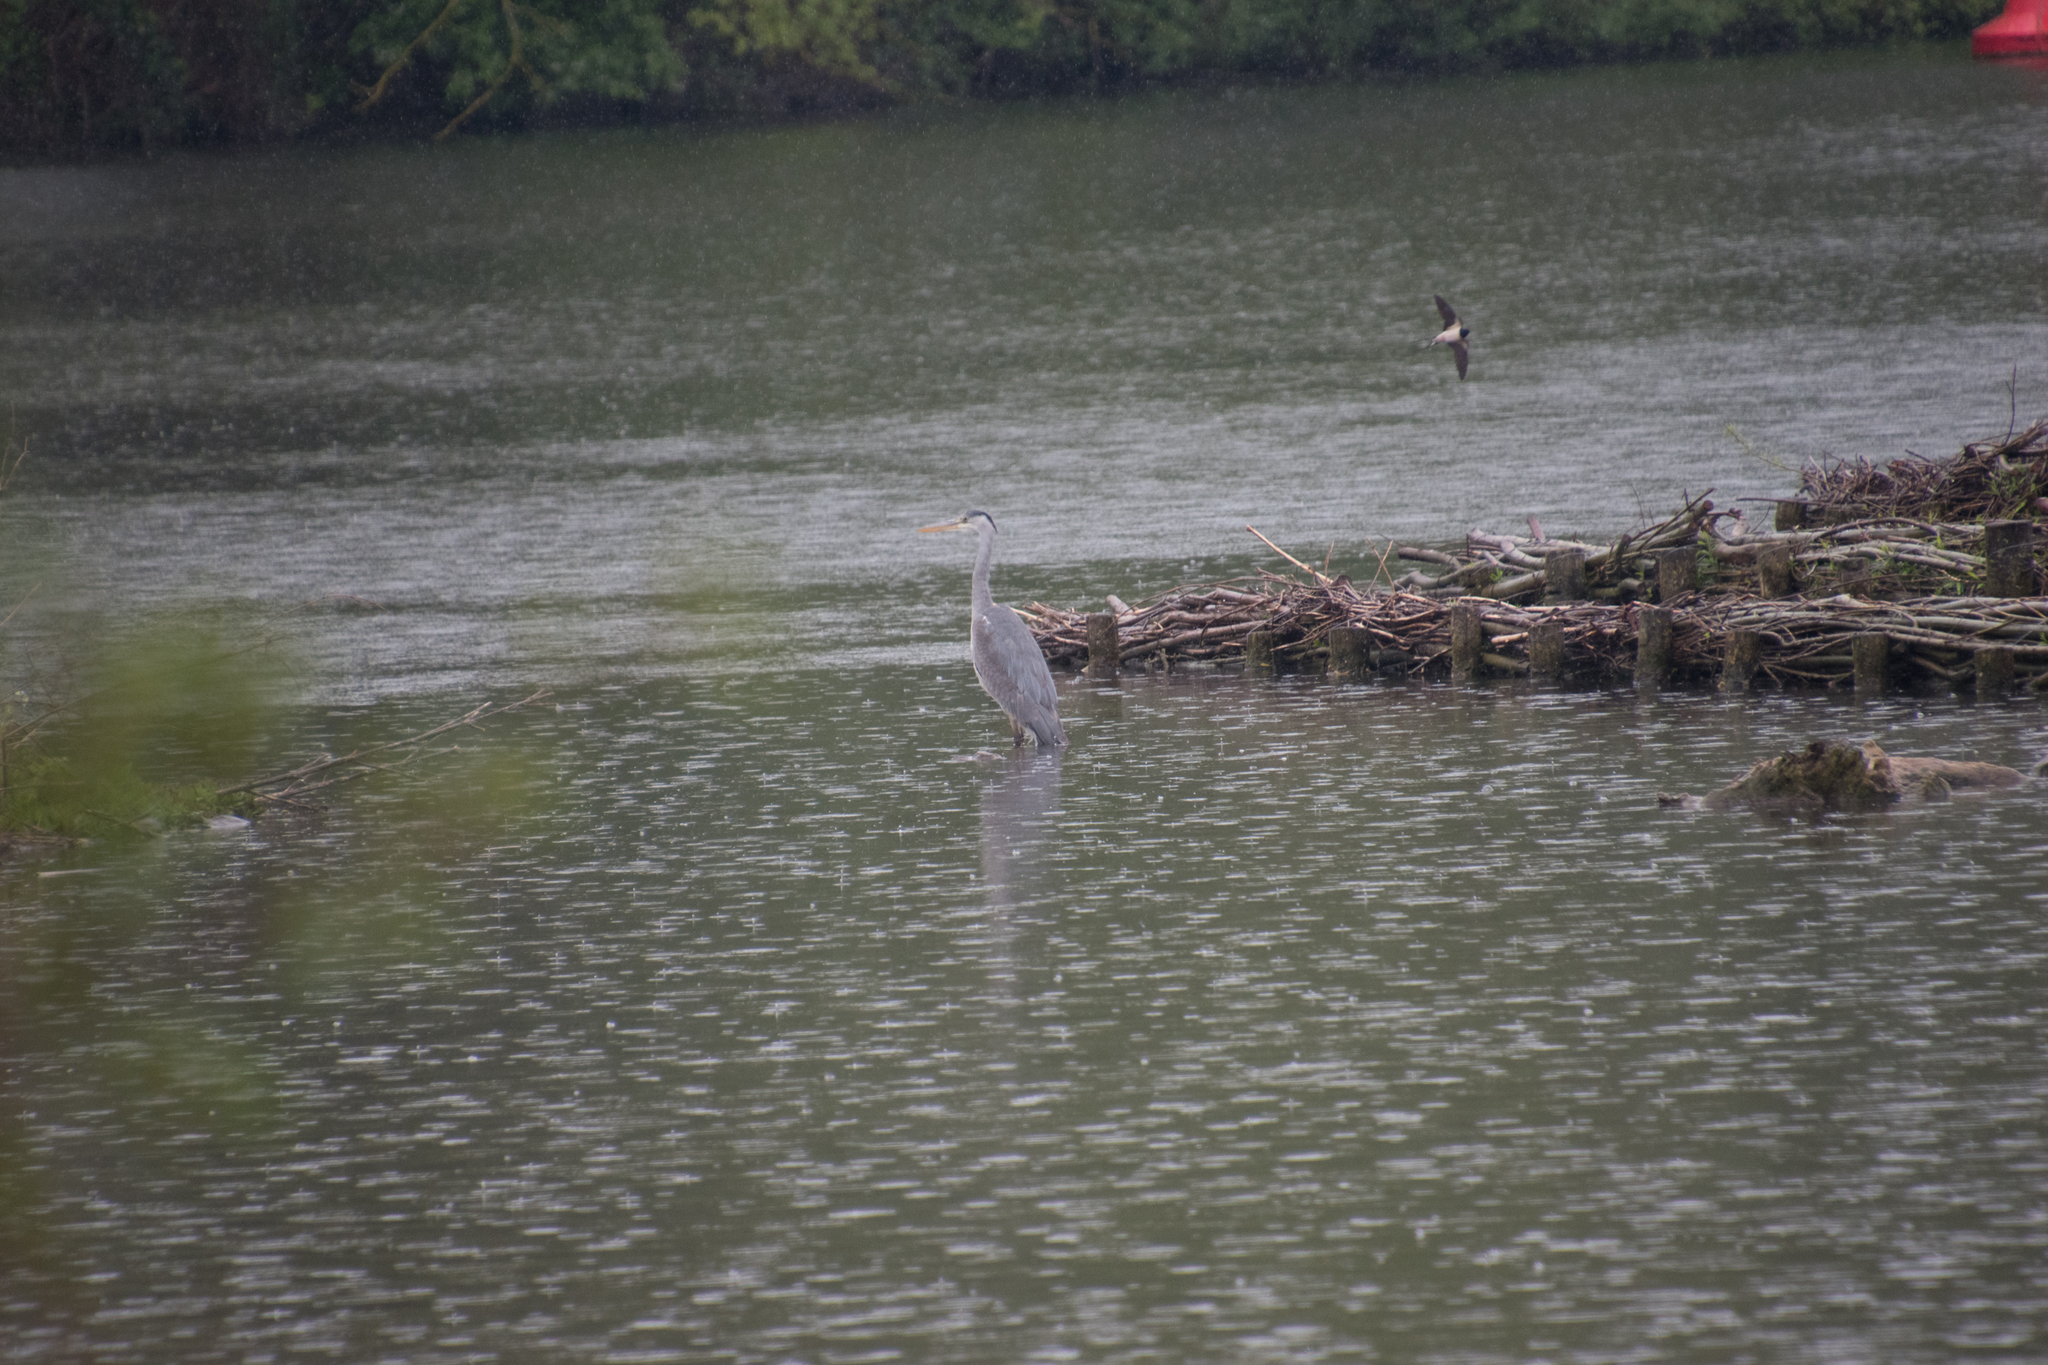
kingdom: Animalia
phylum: Chordata
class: Aves
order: Pelecaniformes
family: Ardeidae
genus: Ardea
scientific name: Ardea cinerea
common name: Grey heron
